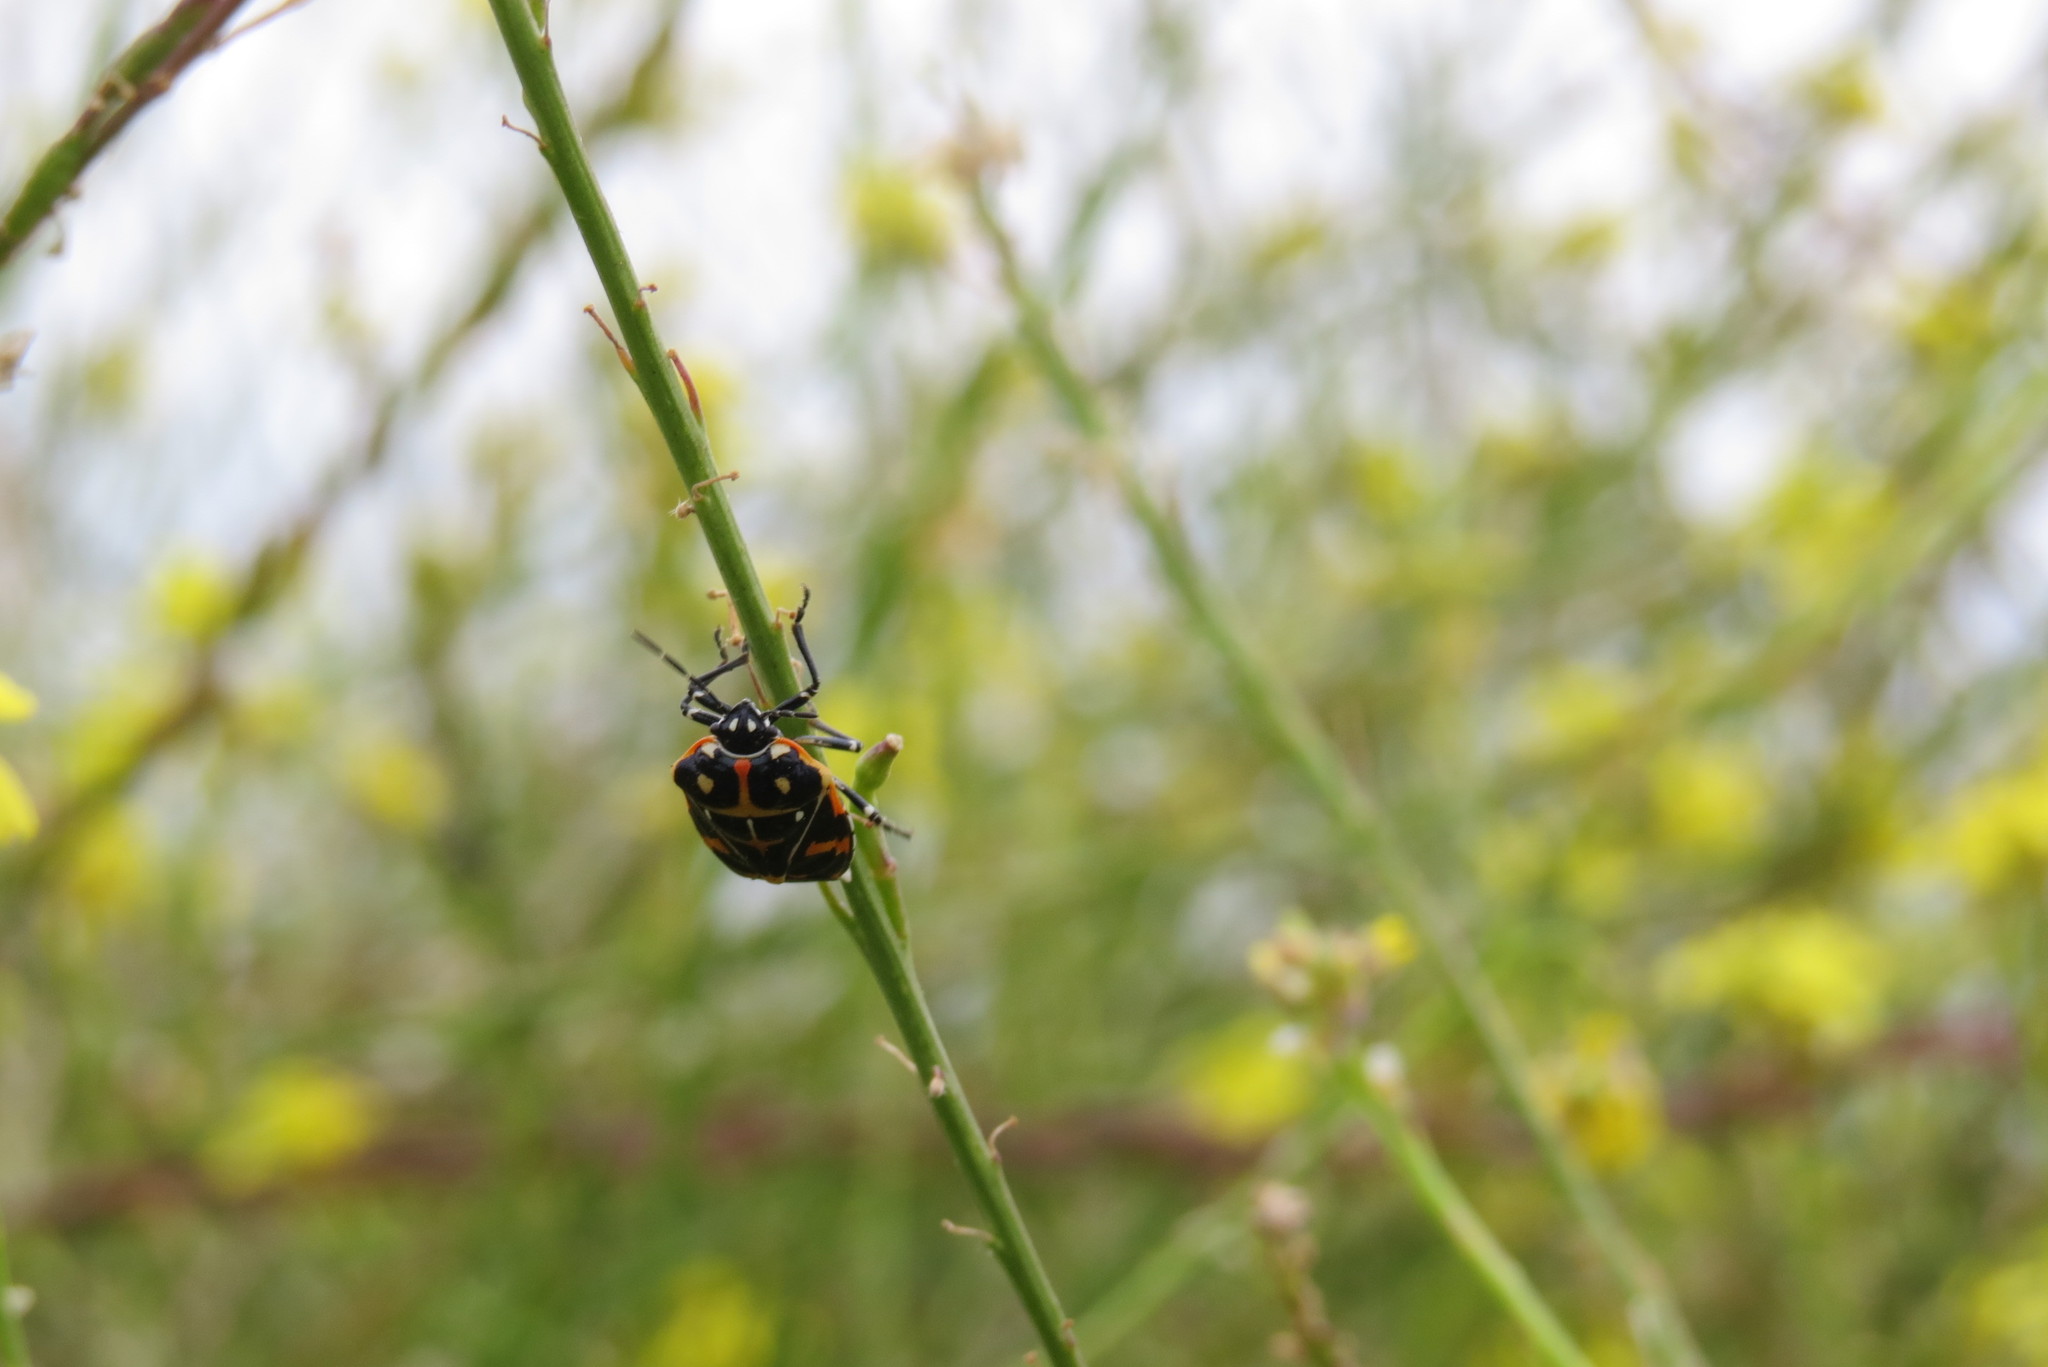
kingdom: Animalia
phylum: Arthropoda
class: Insecta
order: Hemiptera
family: Pentatomidae
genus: Murgantia
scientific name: Murgantia histrionica
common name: Harlequin bug
